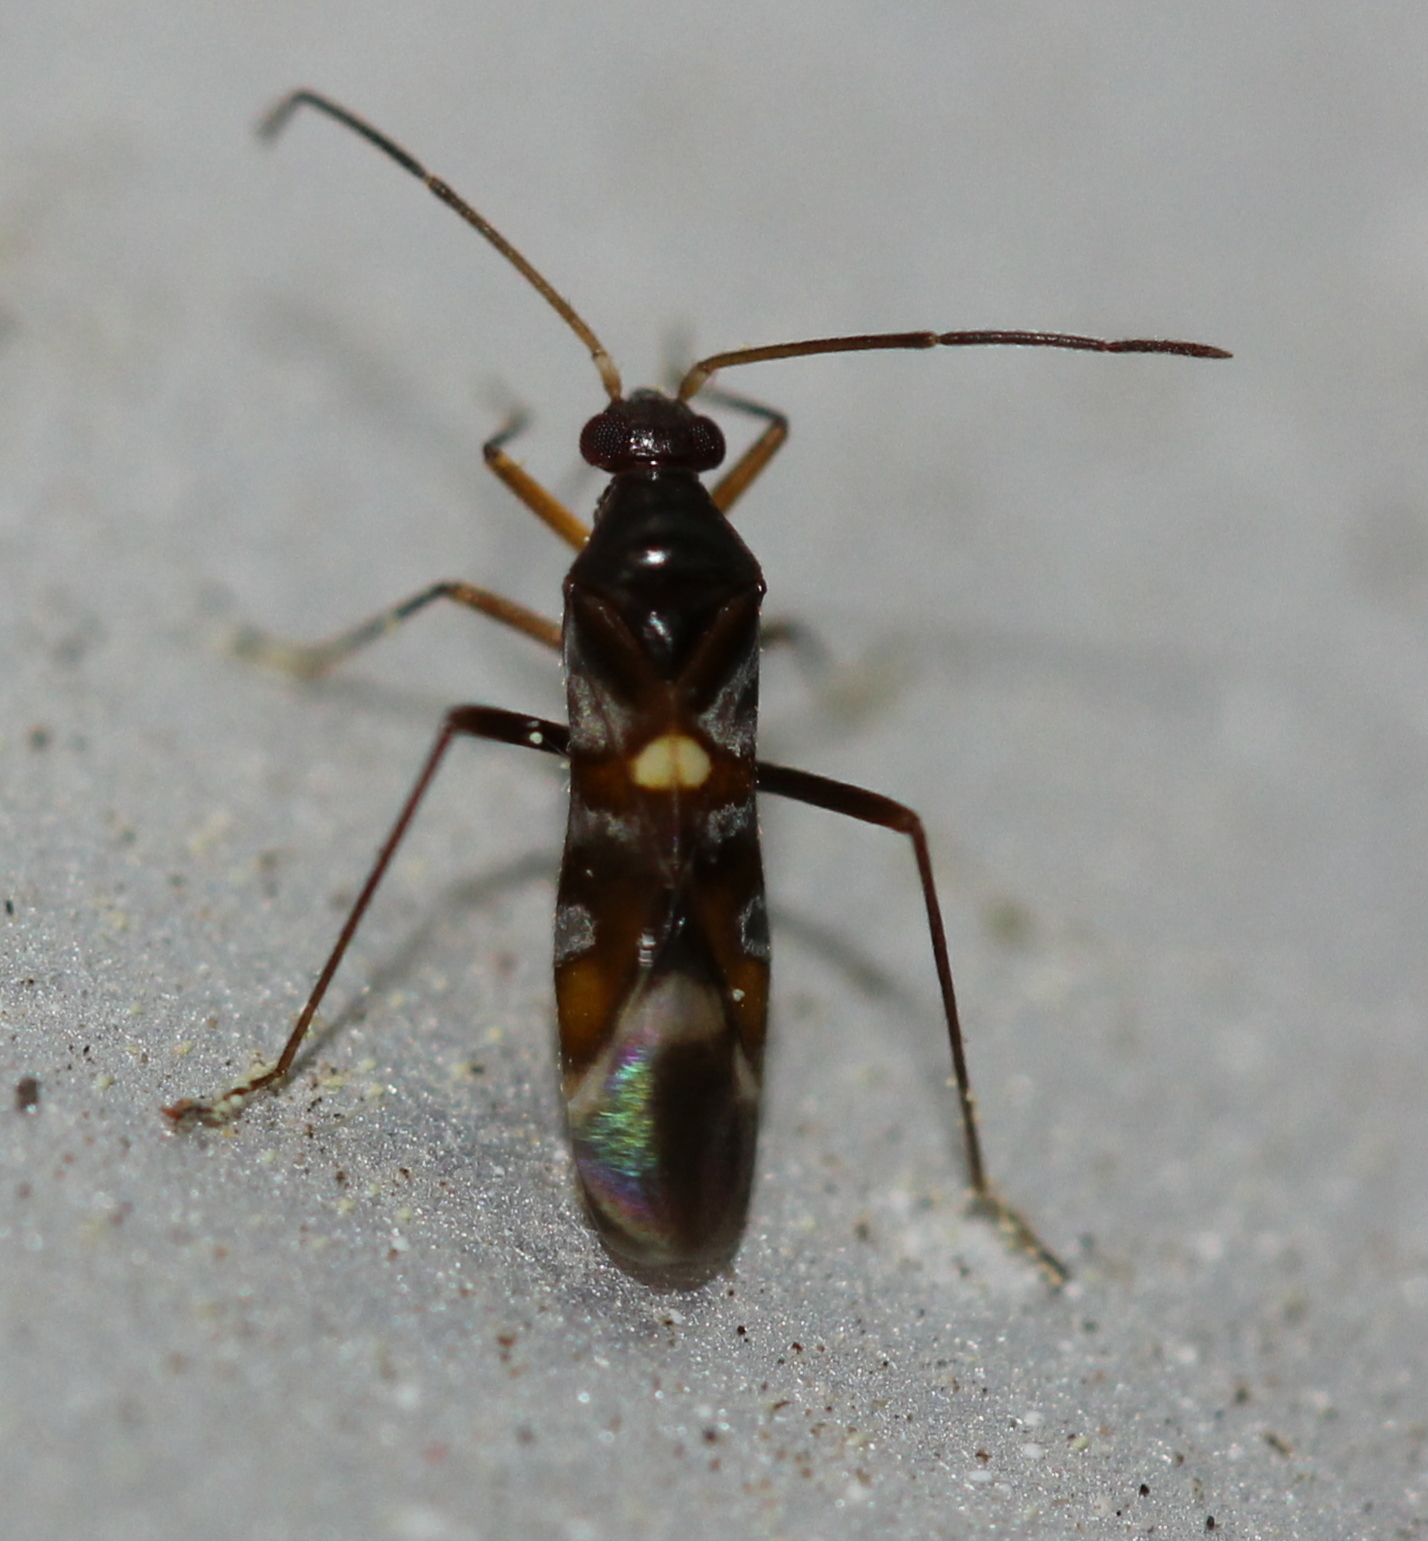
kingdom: Animalia
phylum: Arthropoda
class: Insecta
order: Hemiptera
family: Miridae
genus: Sericophanes
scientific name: Sericophanes heidemanni
